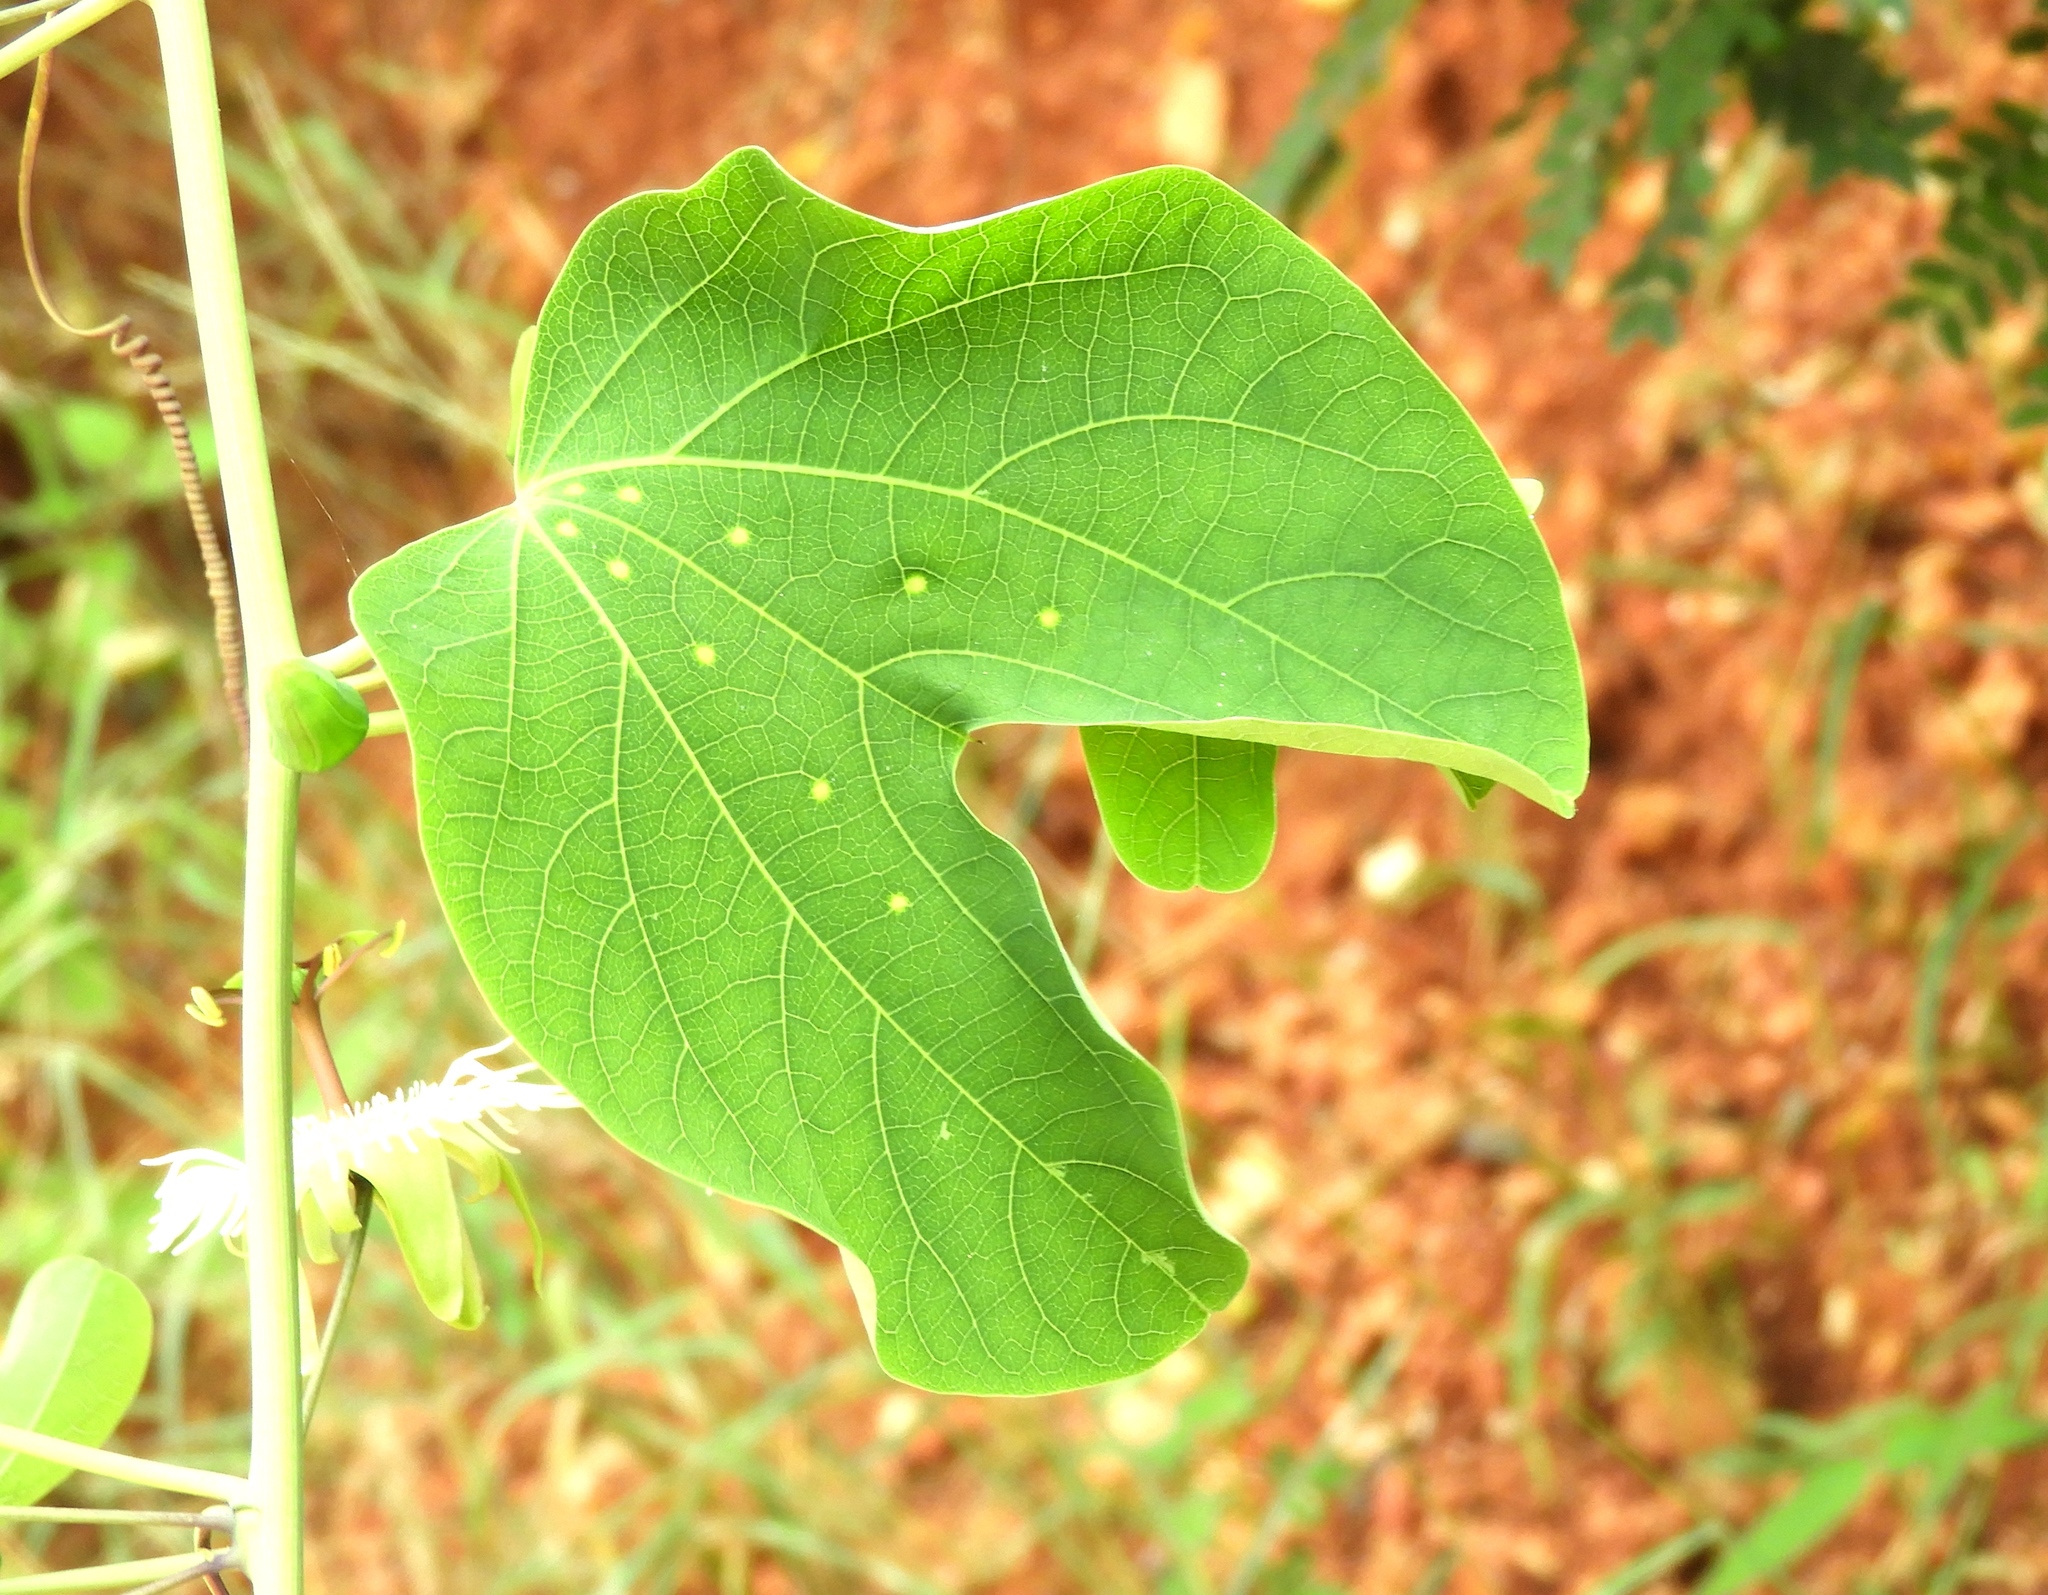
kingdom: Plantae
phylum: Tracheophyta
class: Magnoliopsida
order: Malpighiales
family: Passifloraceae
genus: Passiflora
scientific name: Passiflora mexicana
